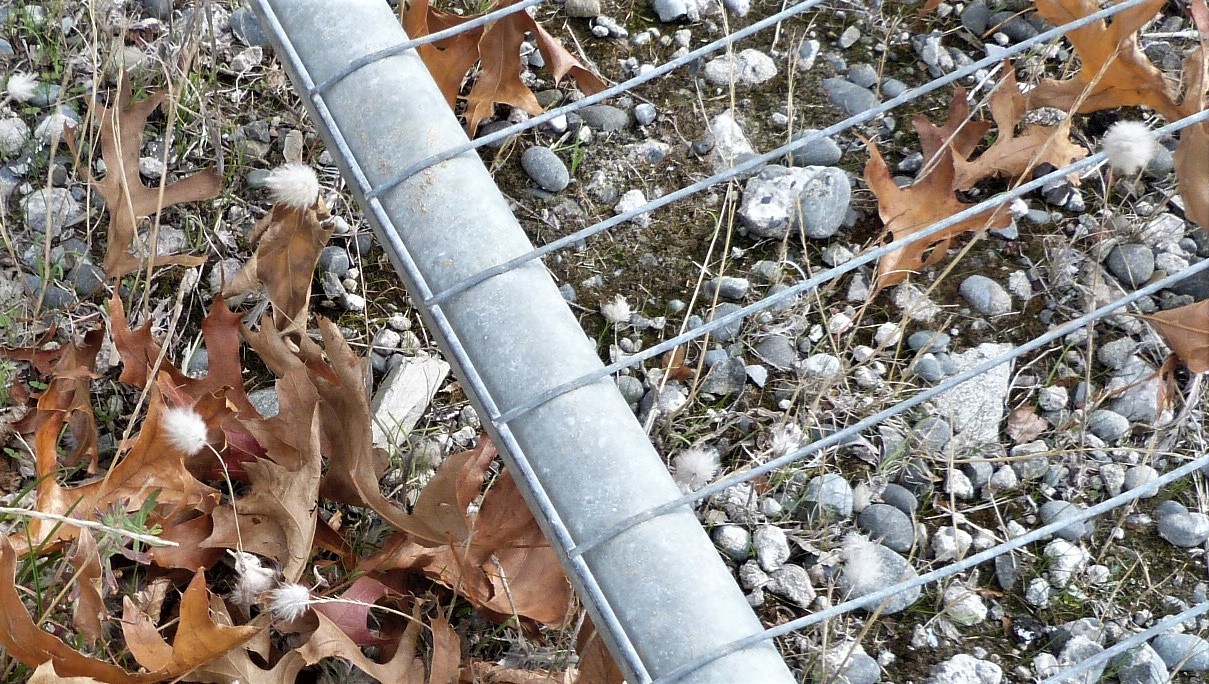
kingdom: Plantae
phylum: Tracheophyta
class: Liliopsida
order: Poales
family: Poaceae
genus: Lagurus
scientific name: Lagurus ovatus
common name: Hare's-tail
